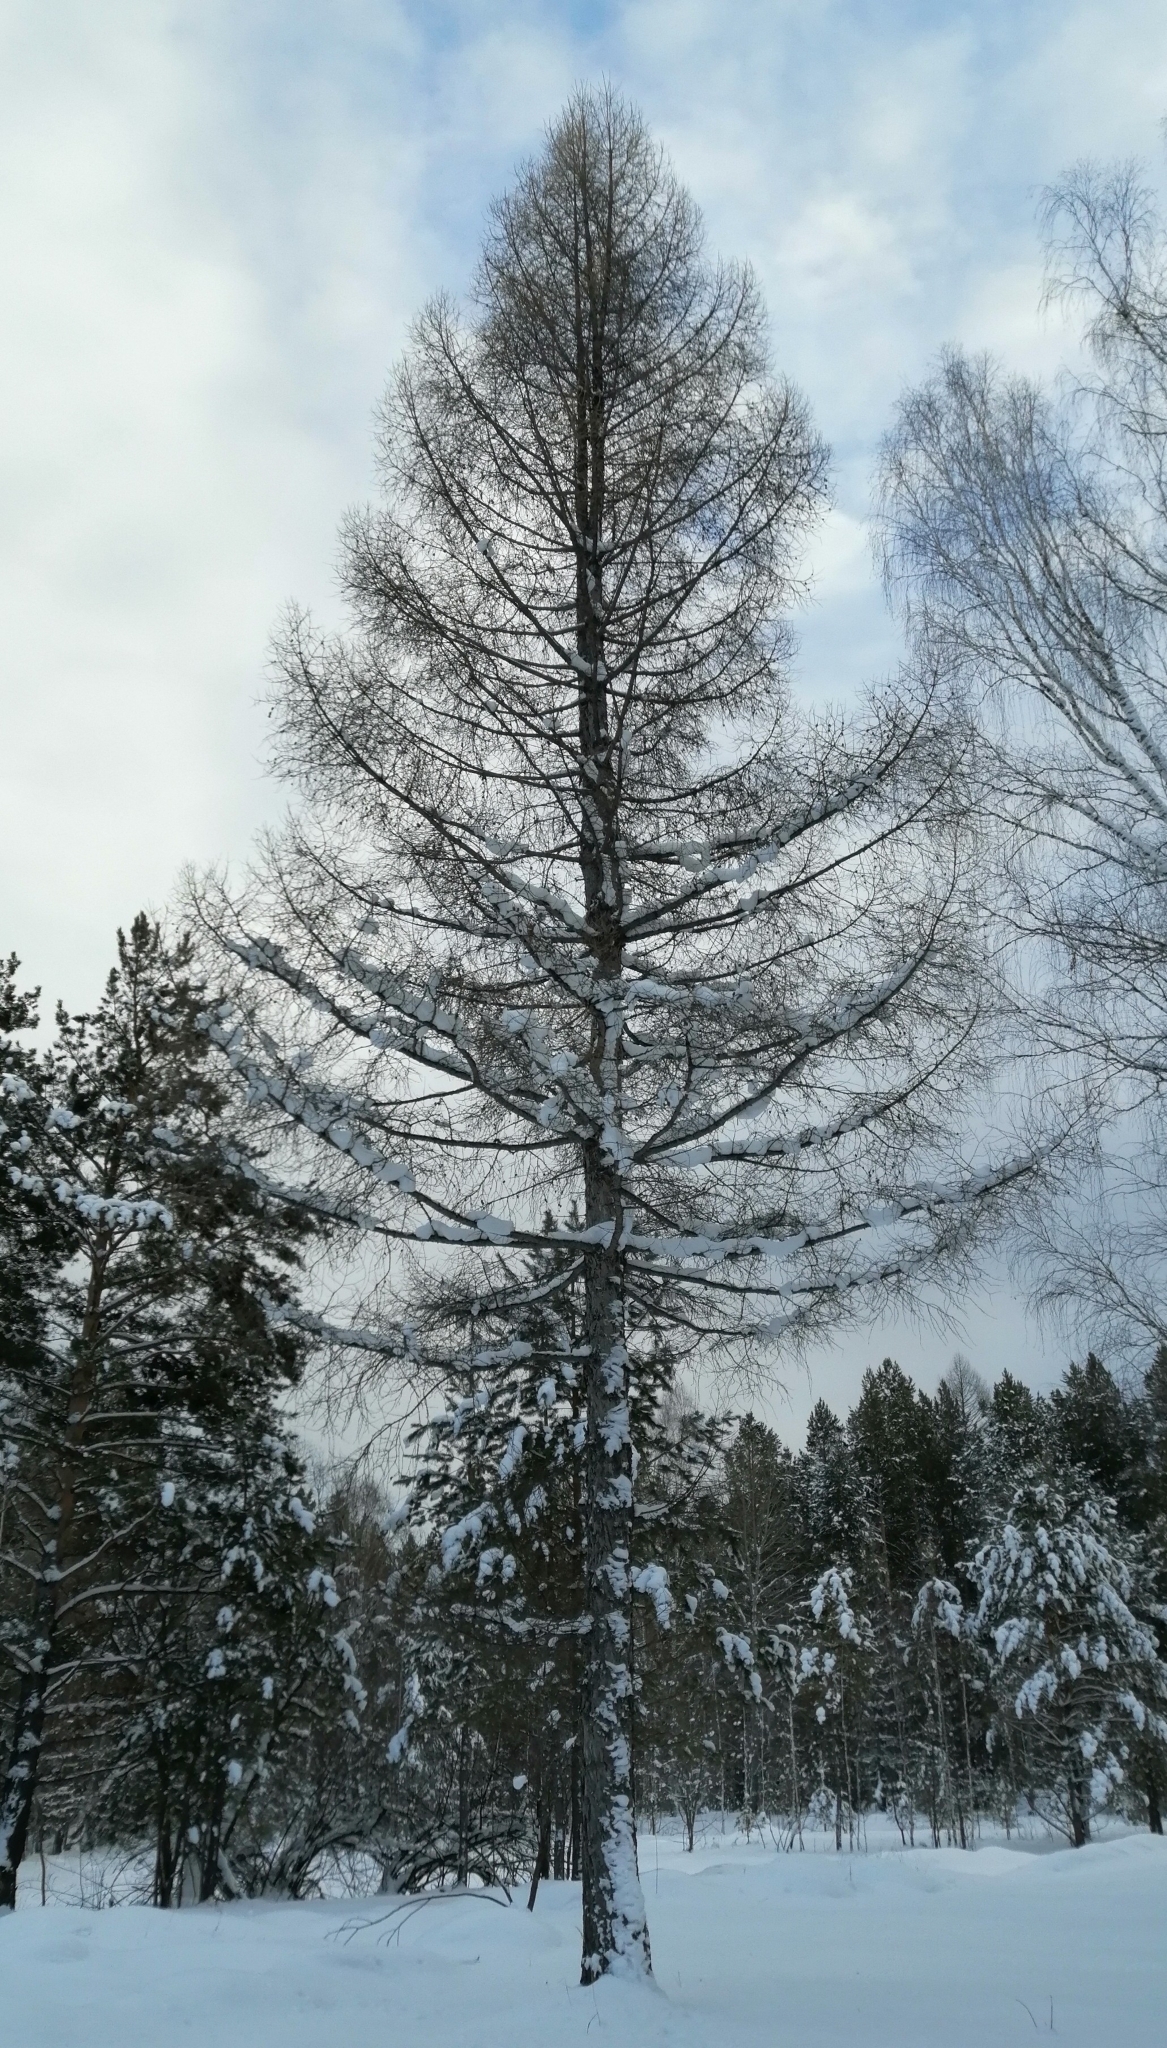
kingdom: Plantae
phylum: Tracheophyta
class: Pinopsida
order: Pinales
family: Pinaceae
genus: Larix
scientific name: Larix sibirica
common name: Siberian larch
